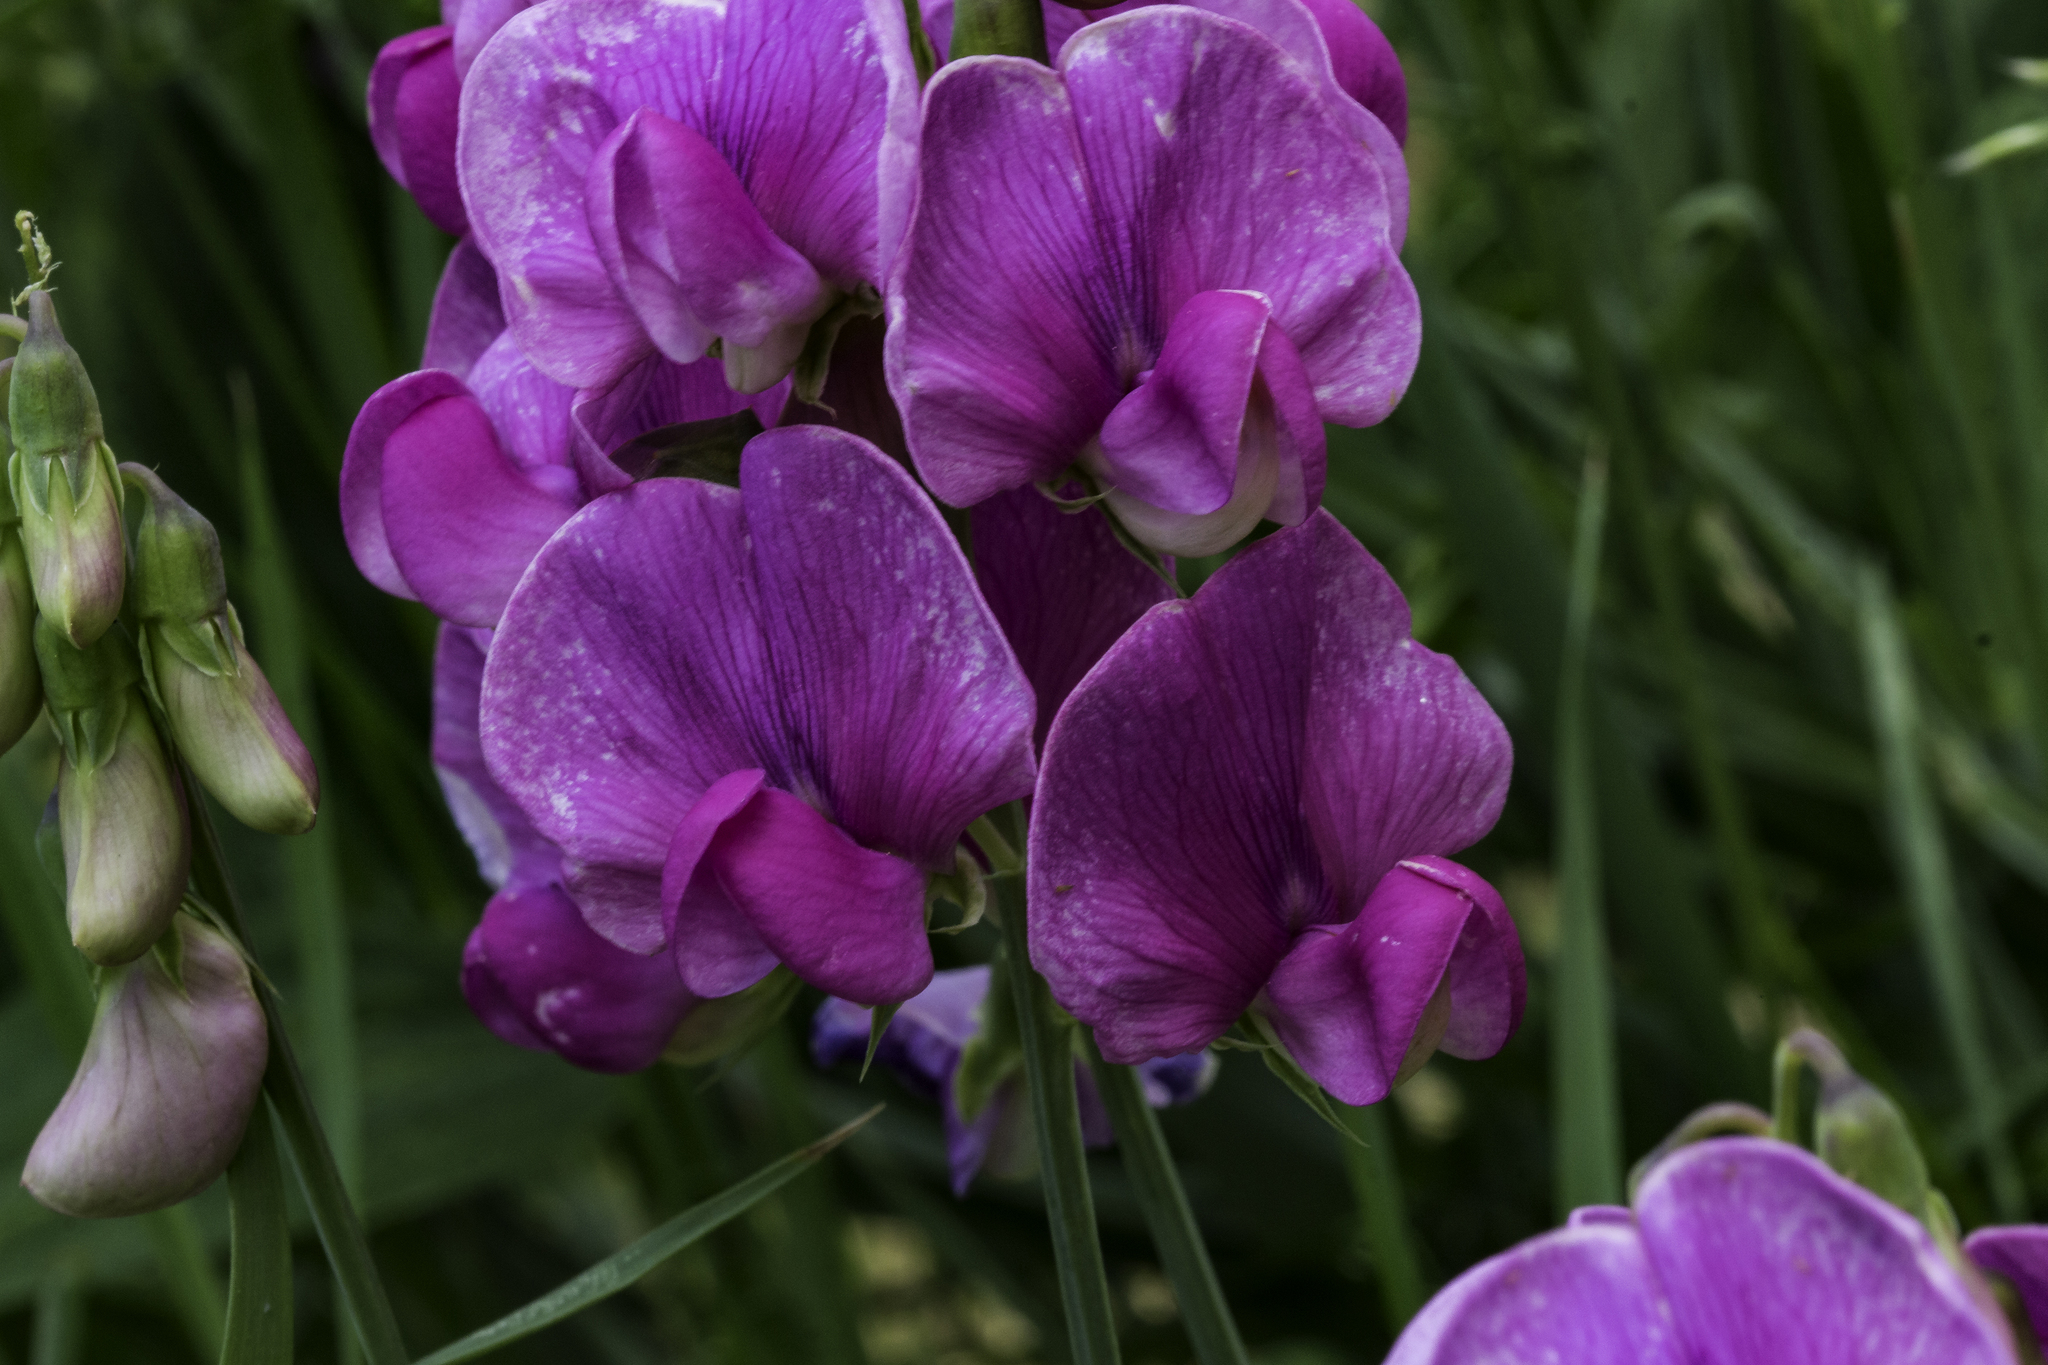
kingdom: Plantae
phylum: Tracheophyta
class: Magnoliopsida
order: Fabales
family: Fabaceae
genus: Lathyrus
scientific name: Lathyrus latifolius
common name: Perennial pea
